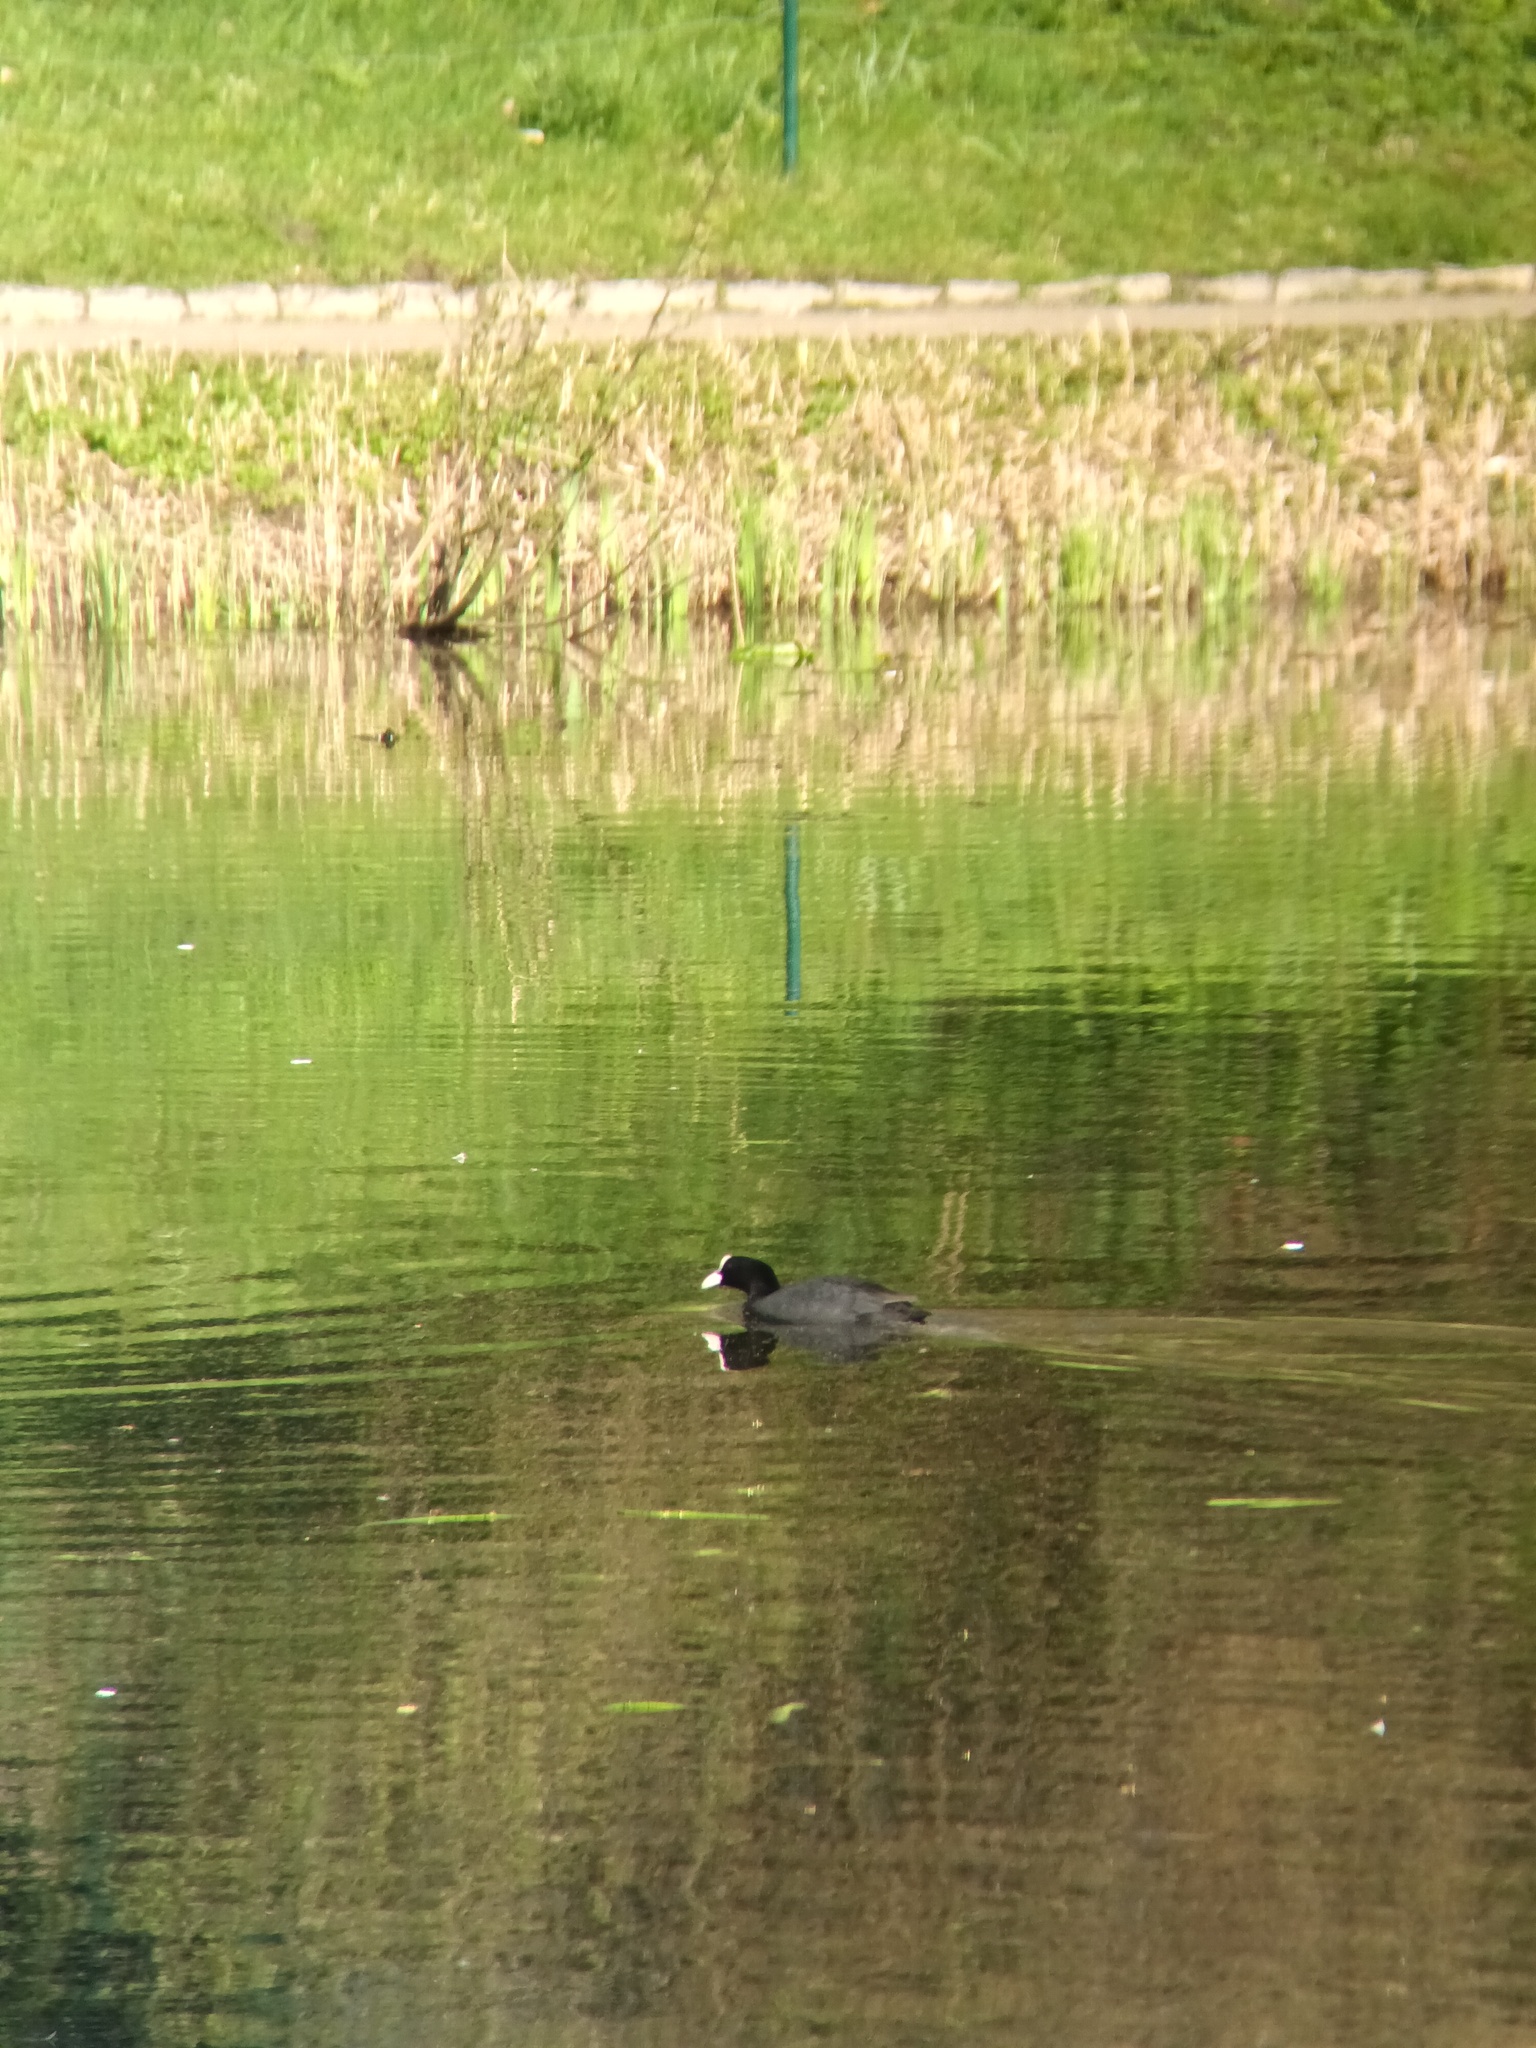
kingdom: Animalia
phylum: Chordata
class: Aves
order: Gruiformes
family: Rallidae
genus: Fulica
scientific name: Fulica atra
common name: Eurasian coot
